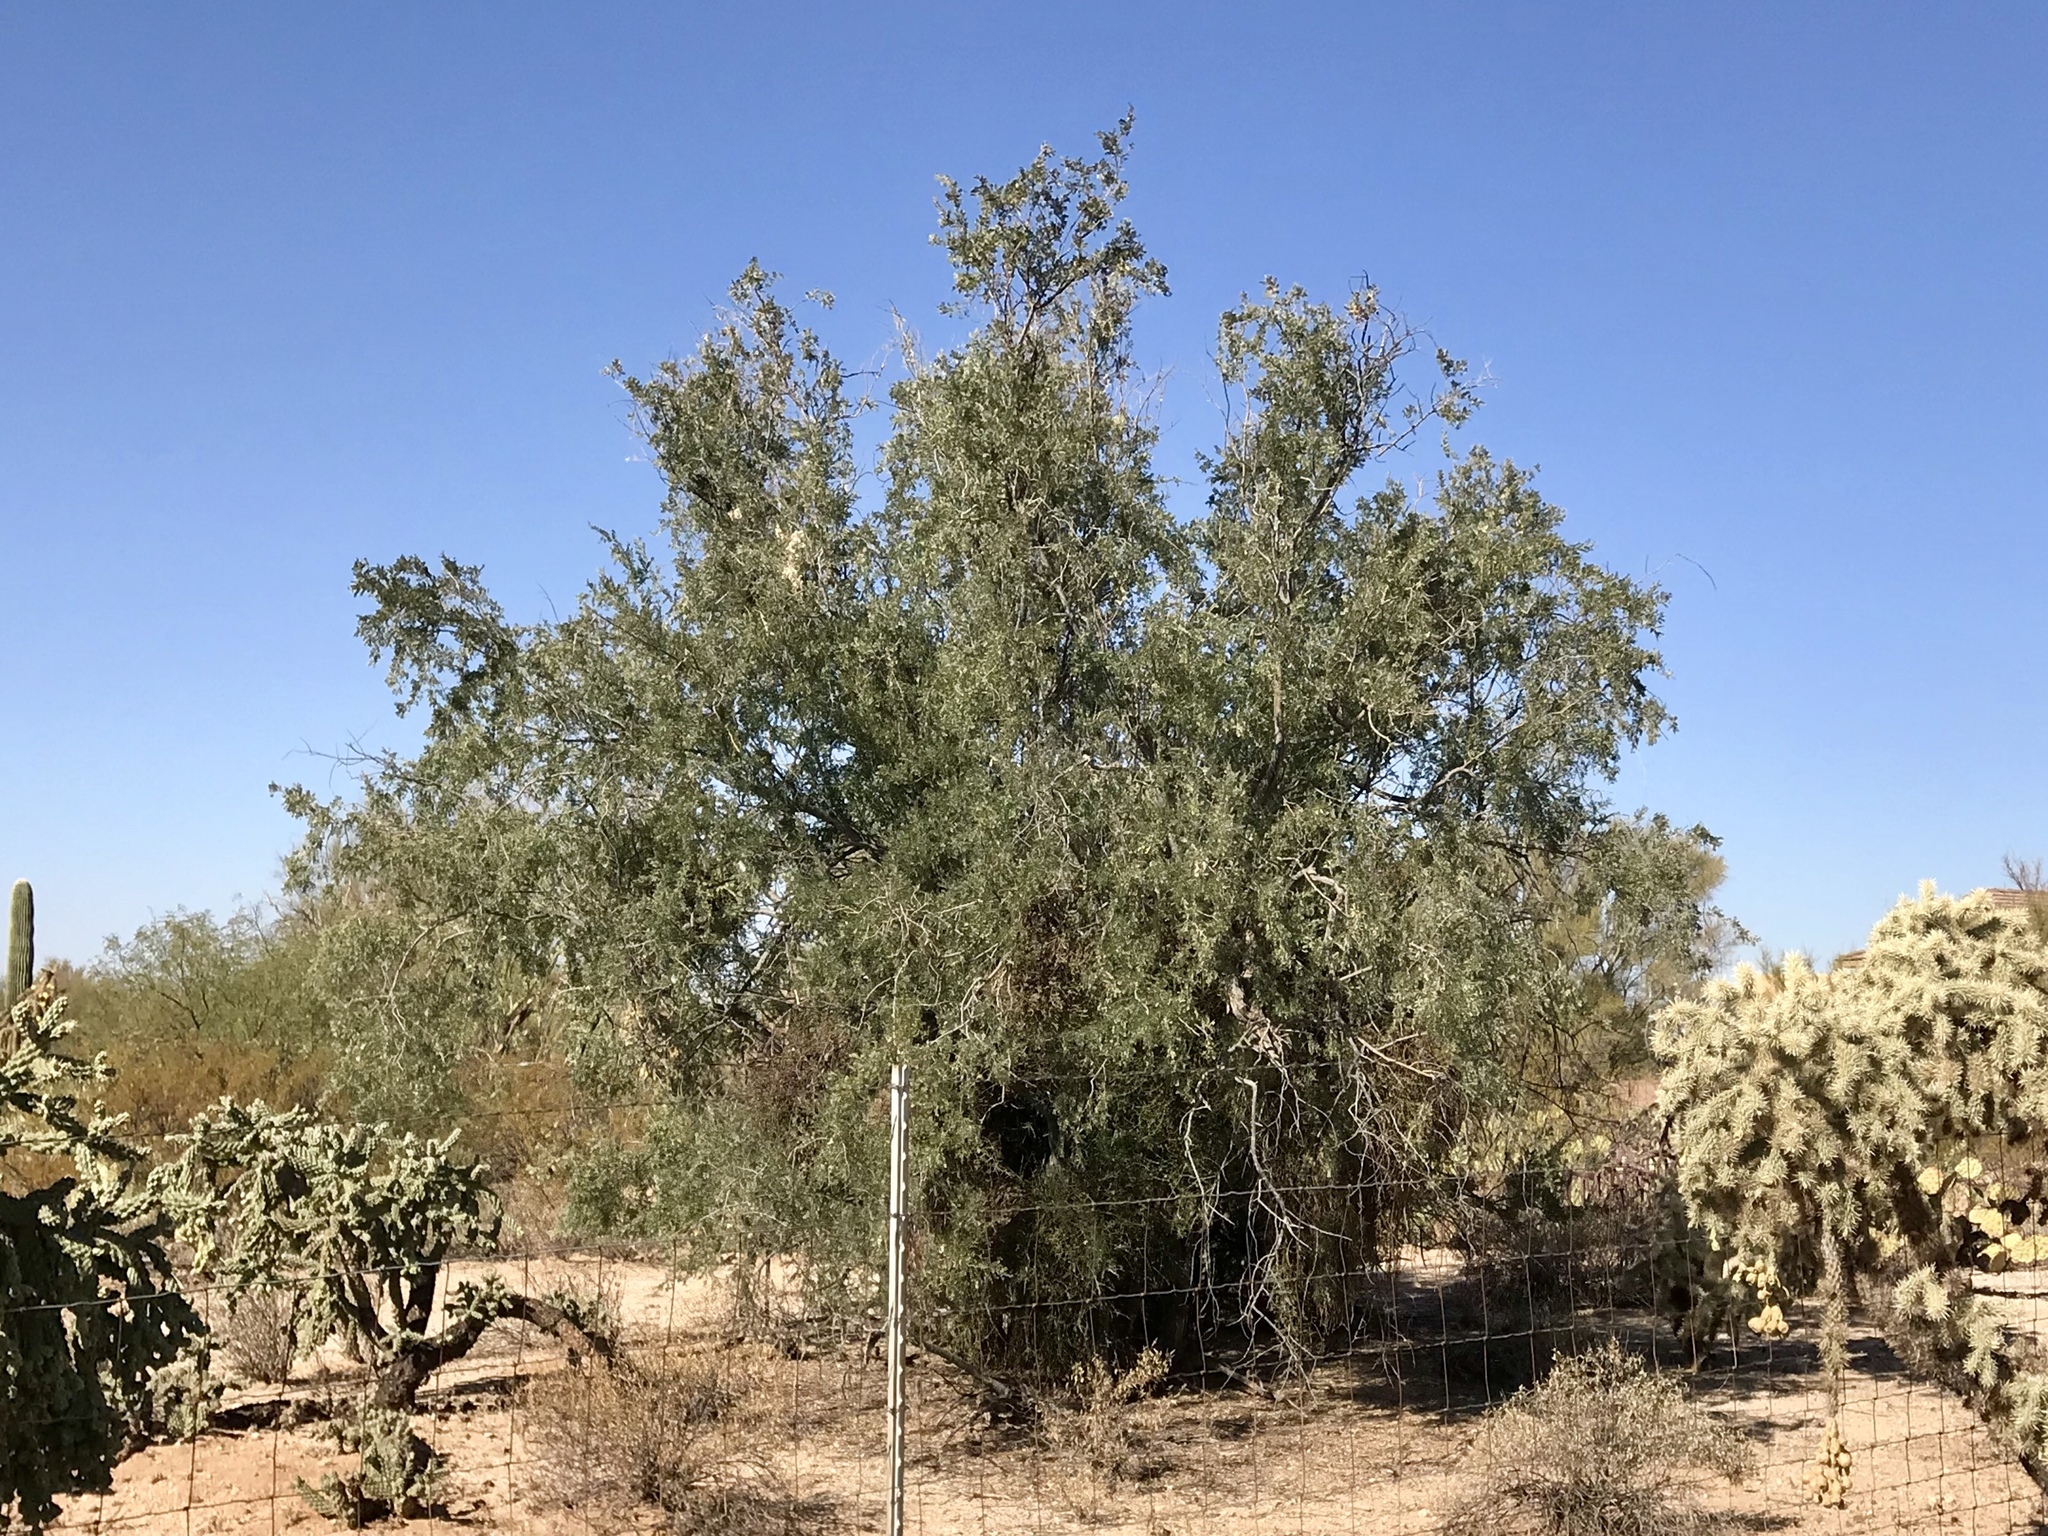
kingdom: Plantae
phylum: Tracheophyta
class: Magnoliopsida
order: Fabales
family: Fabaceae
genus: Olneya
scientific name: Olneya tesota
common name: Desert ironwood
